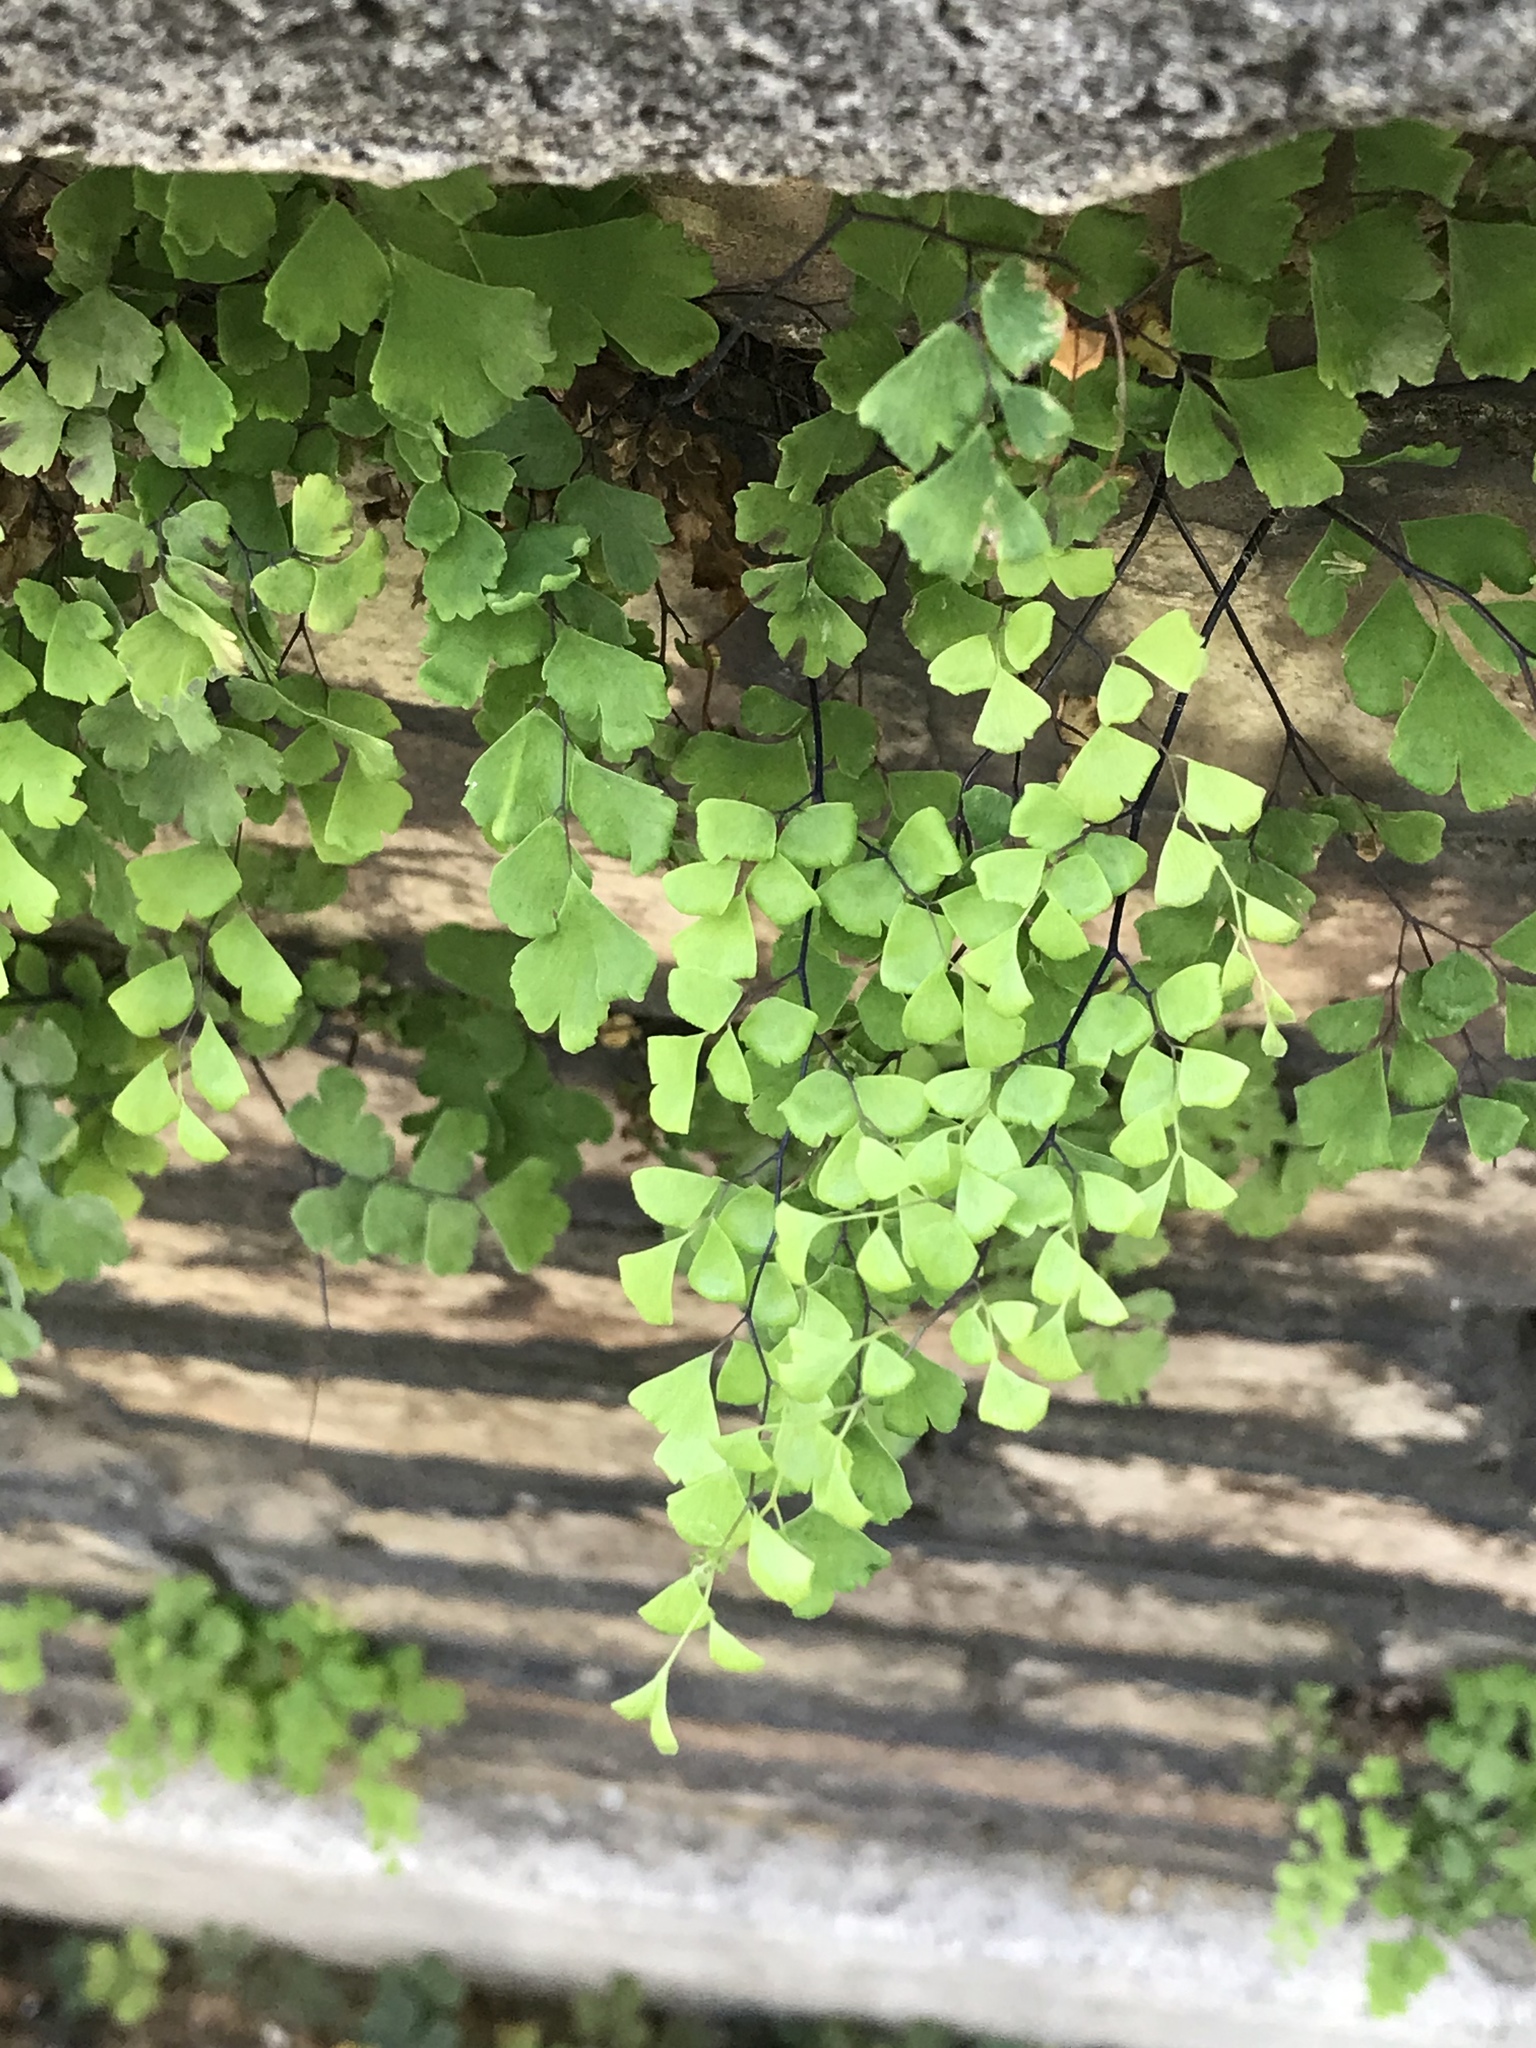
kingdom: Plantae
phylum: Tracheophyta
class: Polypodiopsida
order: Polypodiales
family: Pteridaceae
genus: Adiantum
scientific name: Adiantum capillus-veneris
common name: Maidenhair fern
